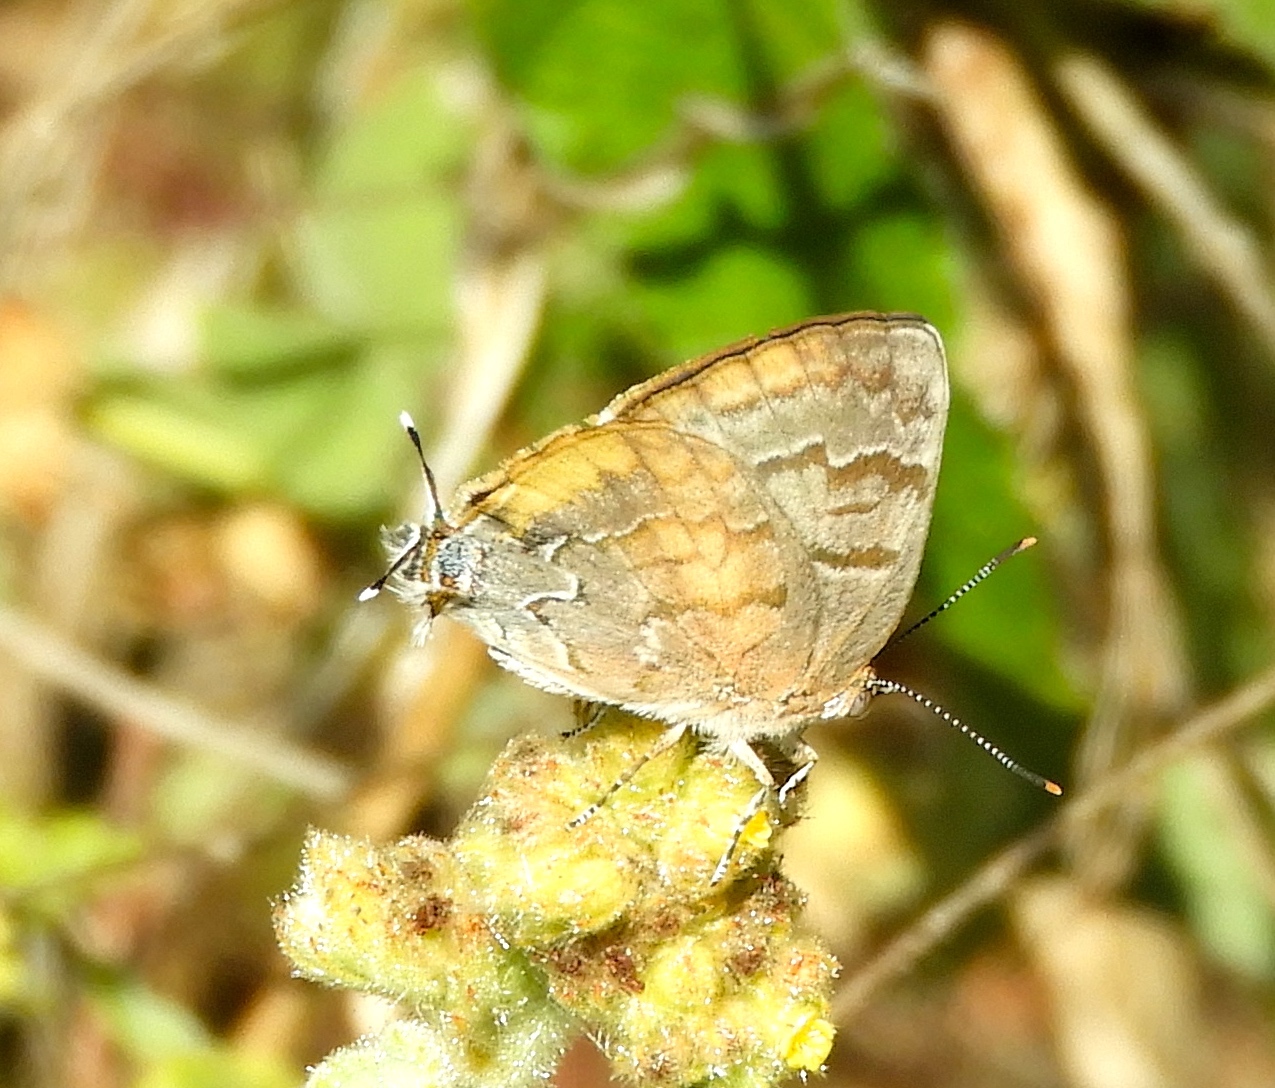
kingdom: Animalia
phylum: Arthropoda
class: Insecta
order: Lepidoptera
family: Lycaenidae
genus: Rekoa
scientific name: Rekoa palegon
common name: Gold-bordered hairstreak
